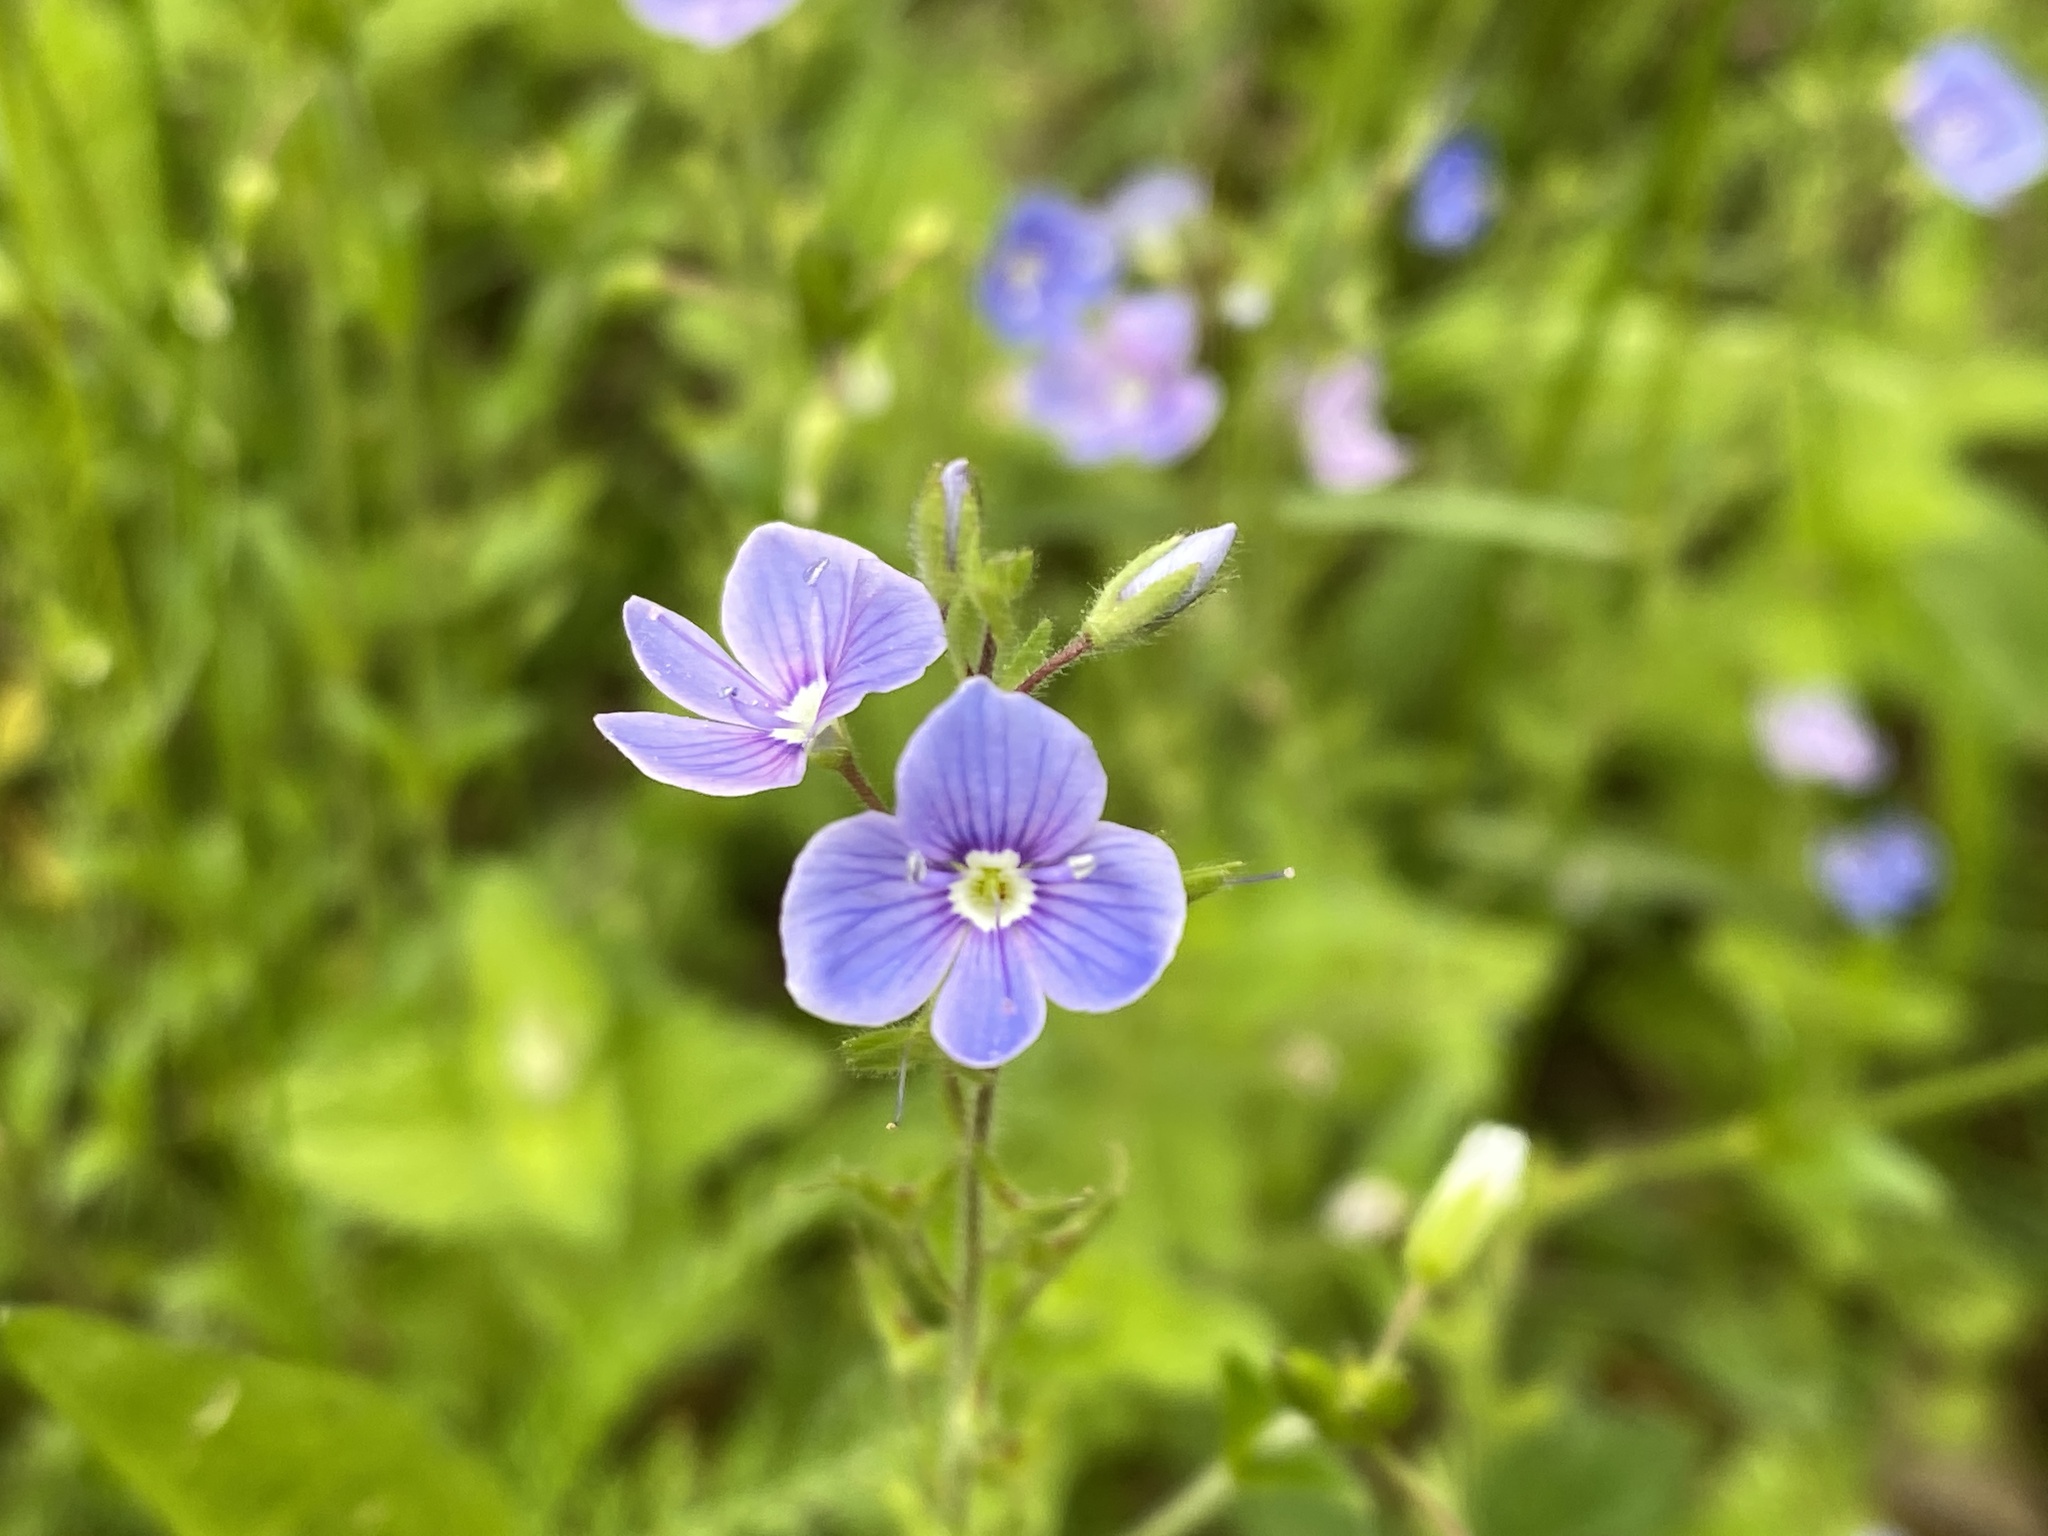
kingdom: Plantae
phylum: Tracheophyta
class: Magnoliopsida
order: Lamiales
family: Plantaginaceae
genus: Veronica
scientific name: Veronica chamaedrys
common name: Germander speedwell
